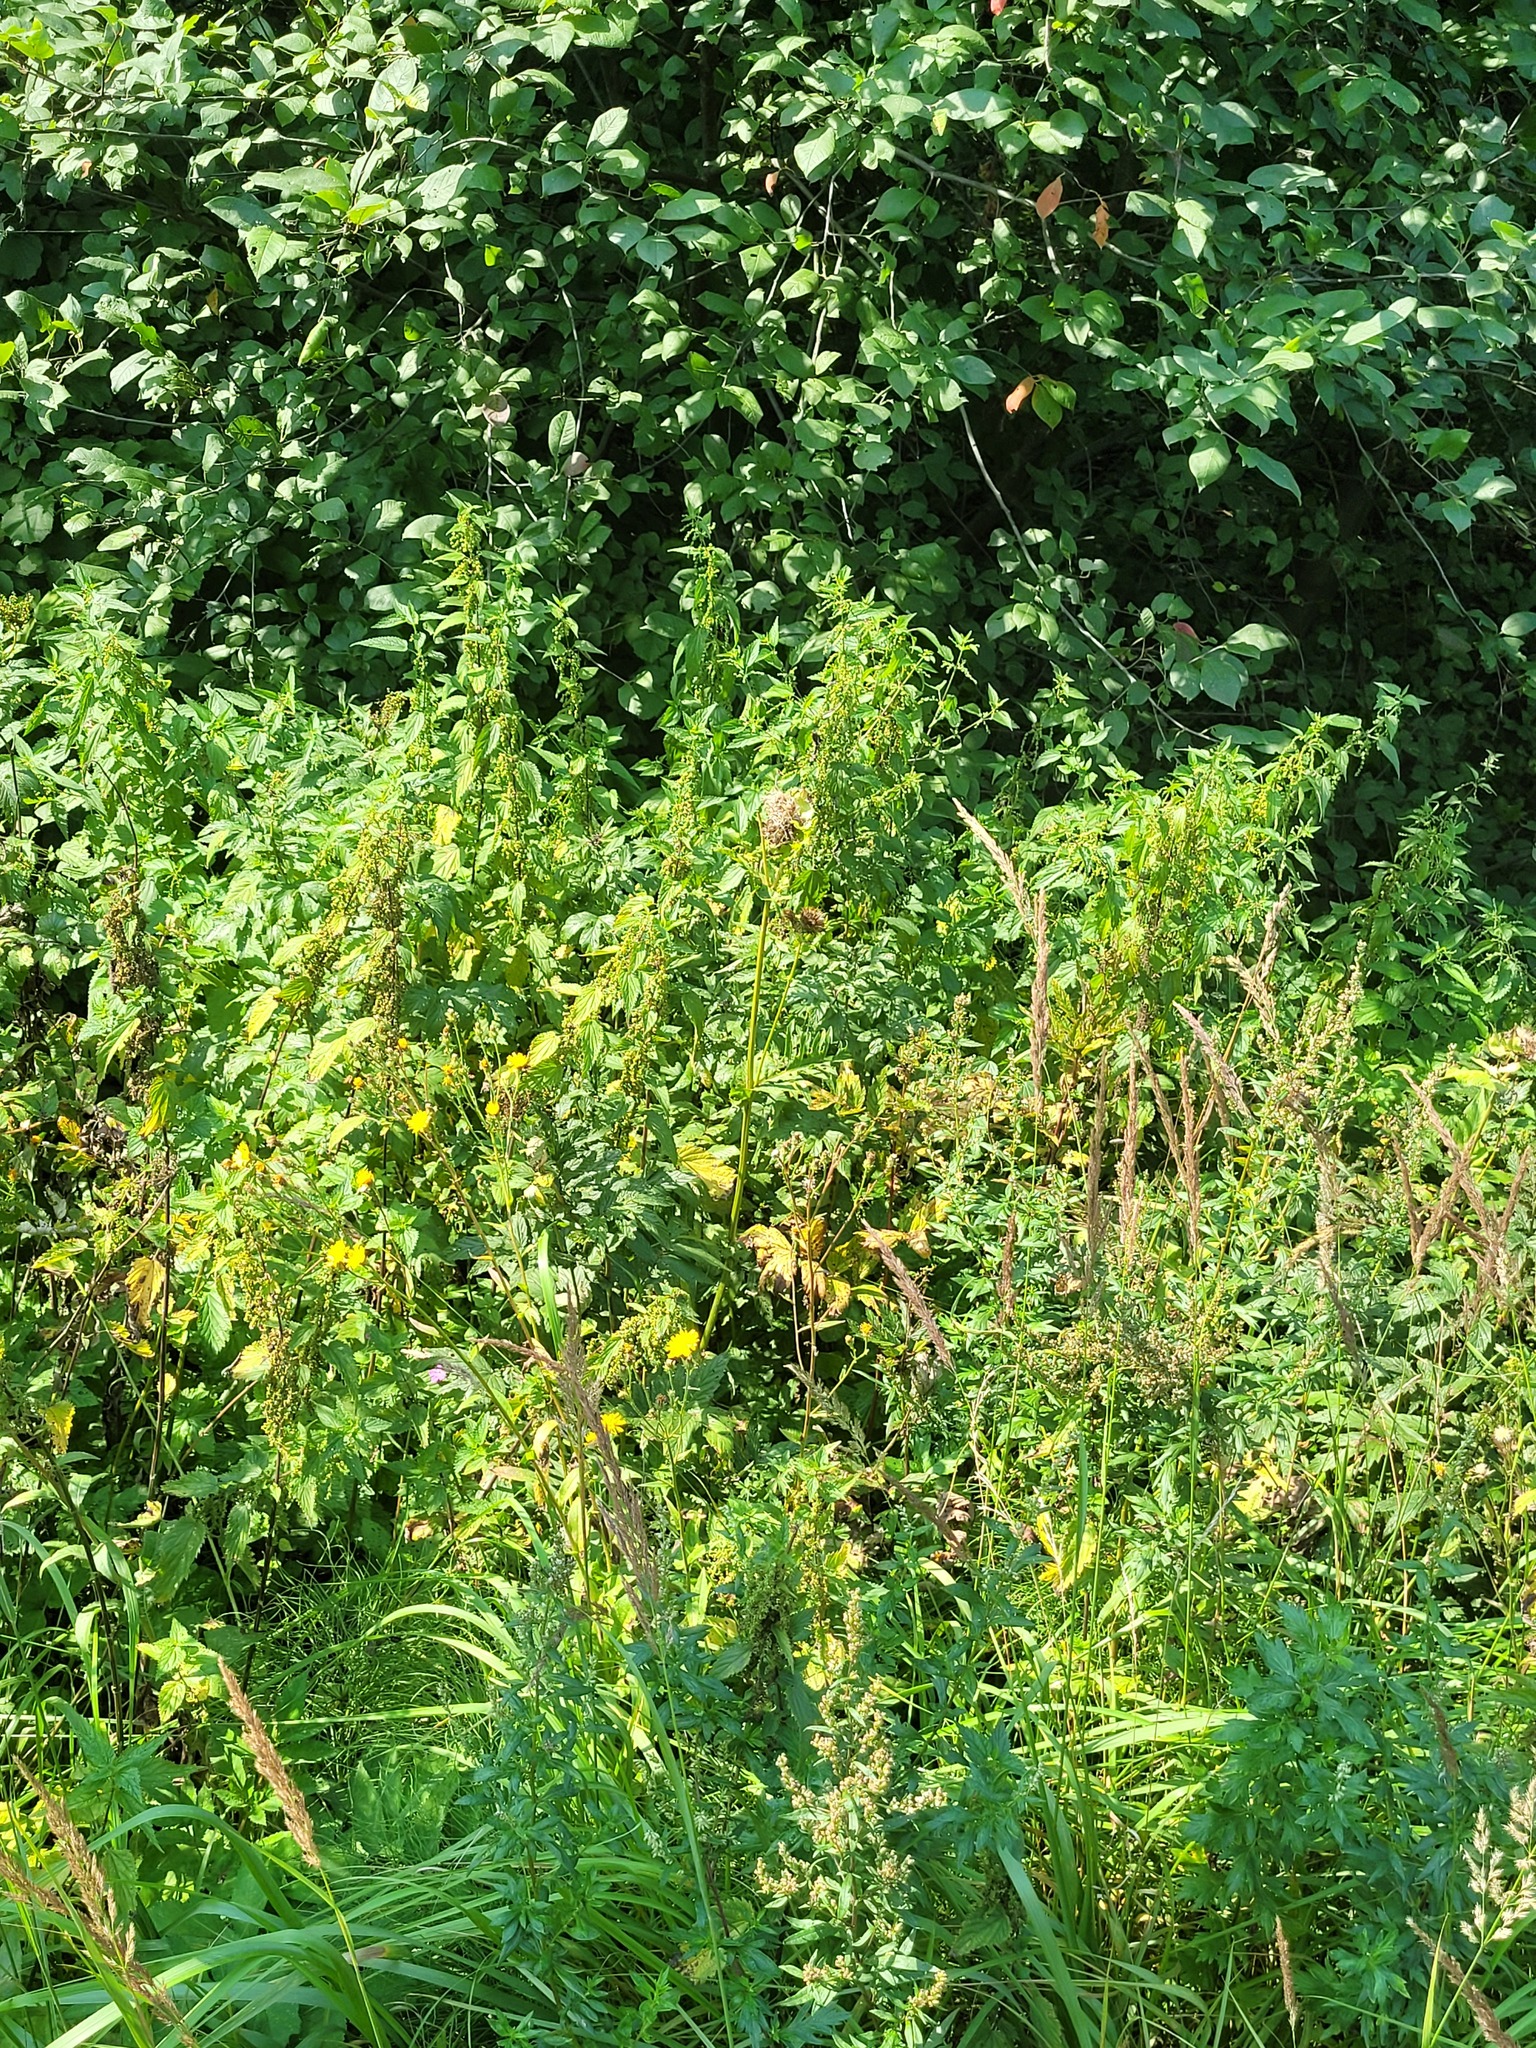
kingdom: Plantae
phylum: Tracheophyta
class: Magnoliopsida
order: Asterales
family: Asteraceae
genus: Cirsium
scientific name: Cirsium oleraceum
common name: Cabbage thistle
